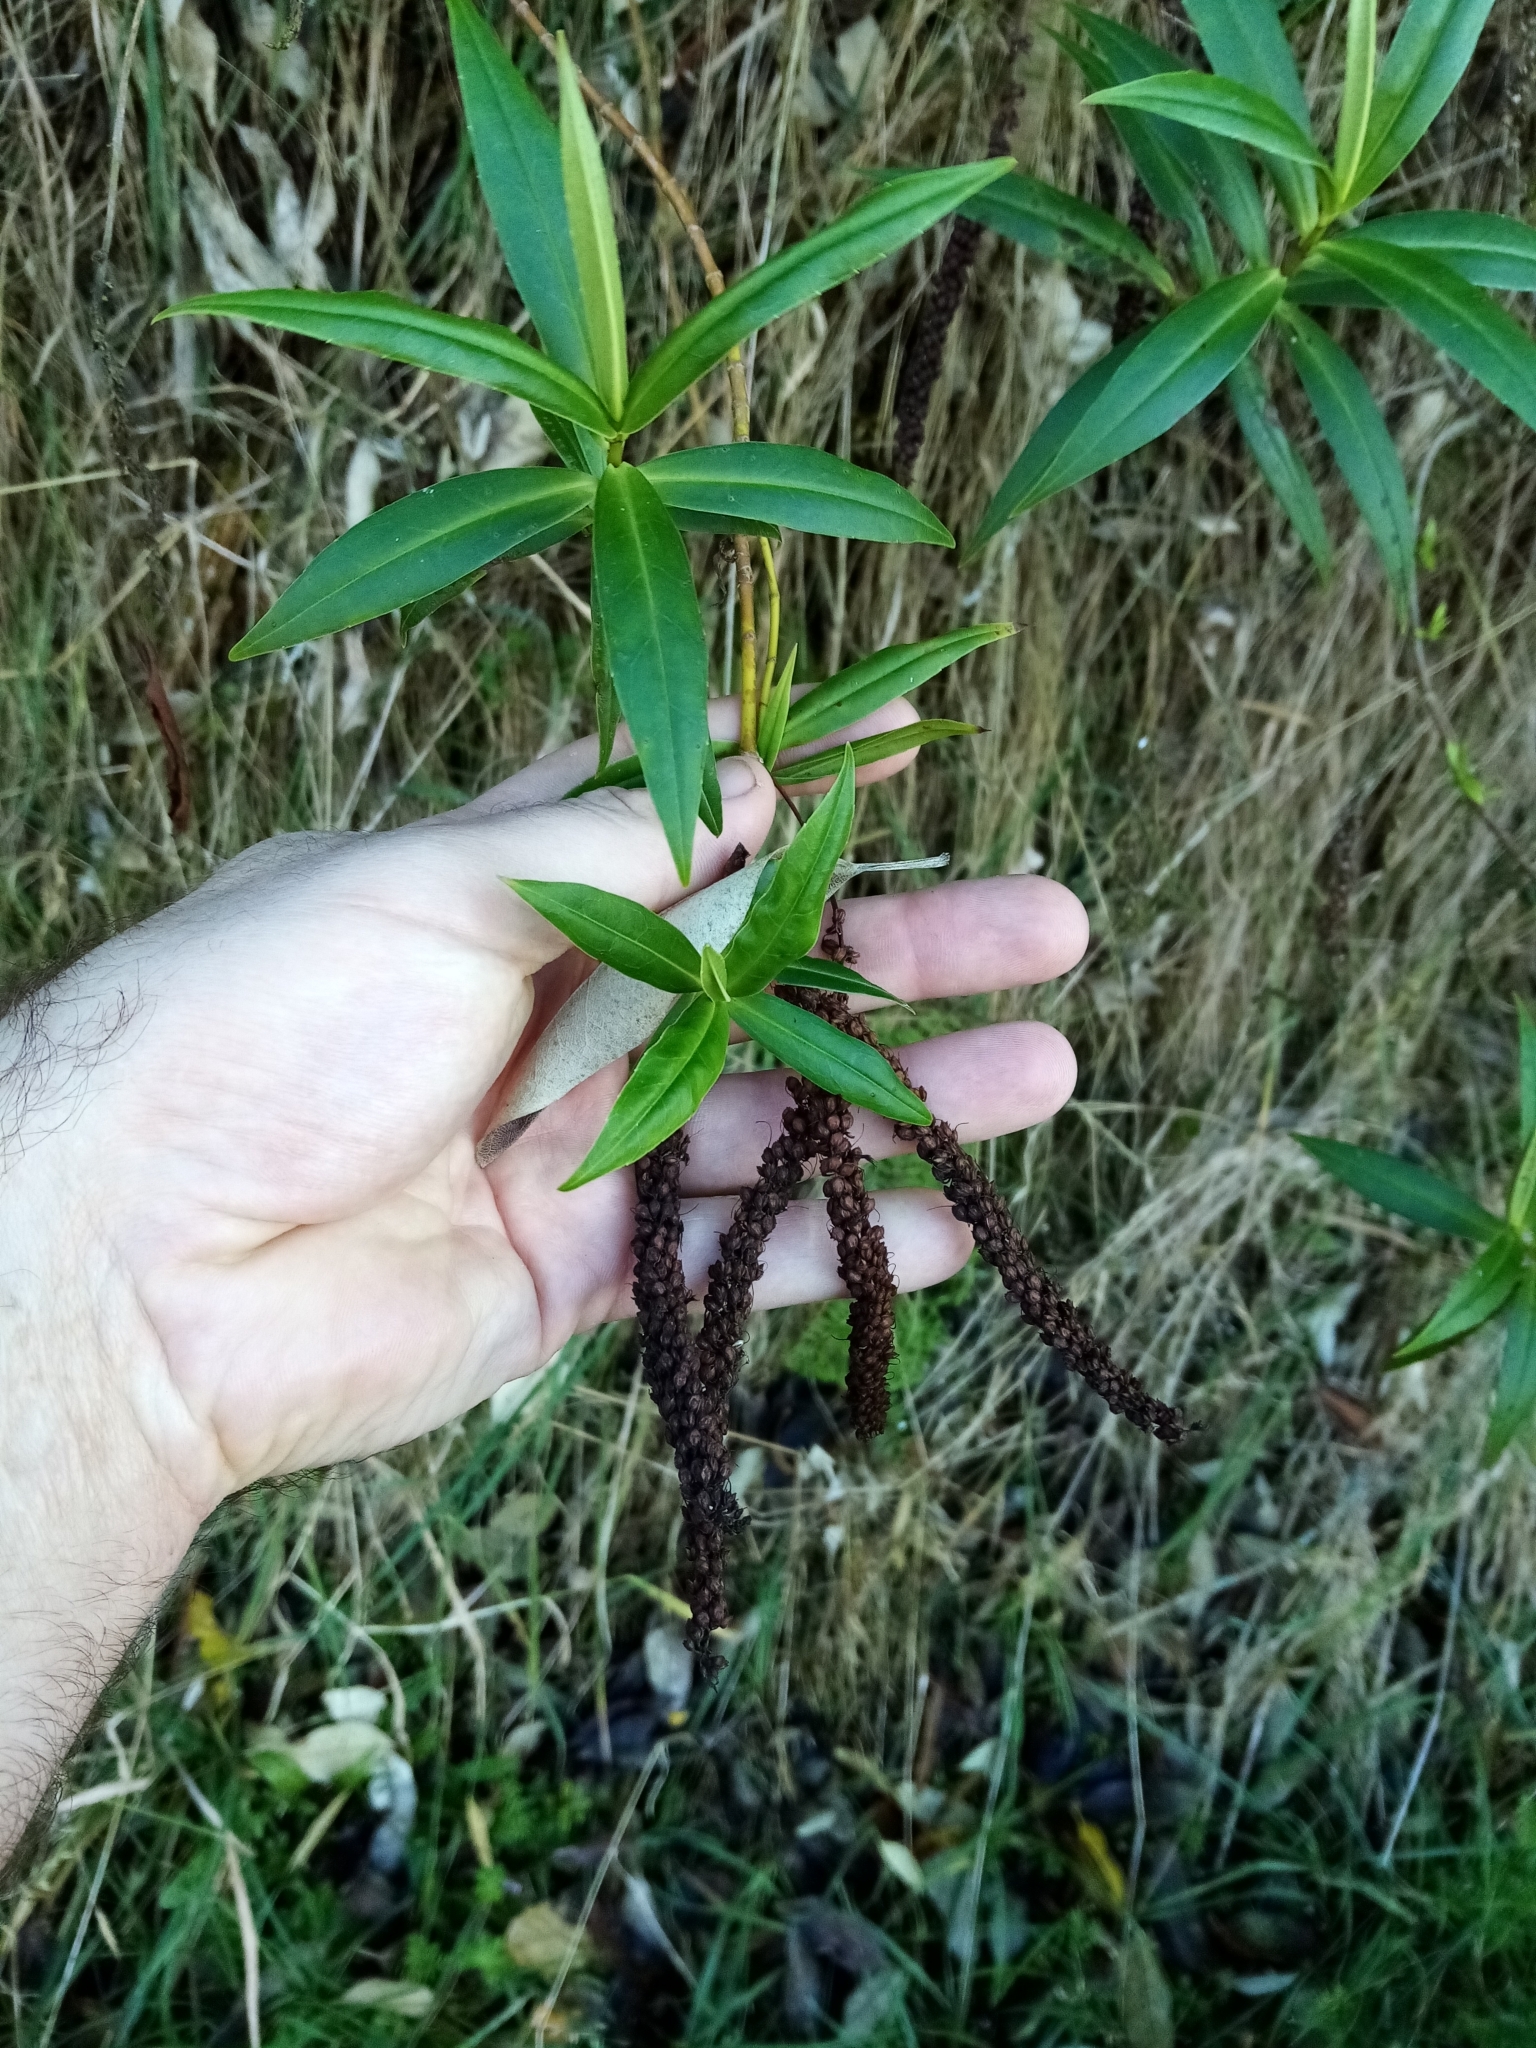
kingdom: Plantae
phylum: Tracheophyta
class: Magnoliopsida
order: Lamiales
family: Plantaginaceae
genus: Veronica
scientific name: Veronica salicifolia
